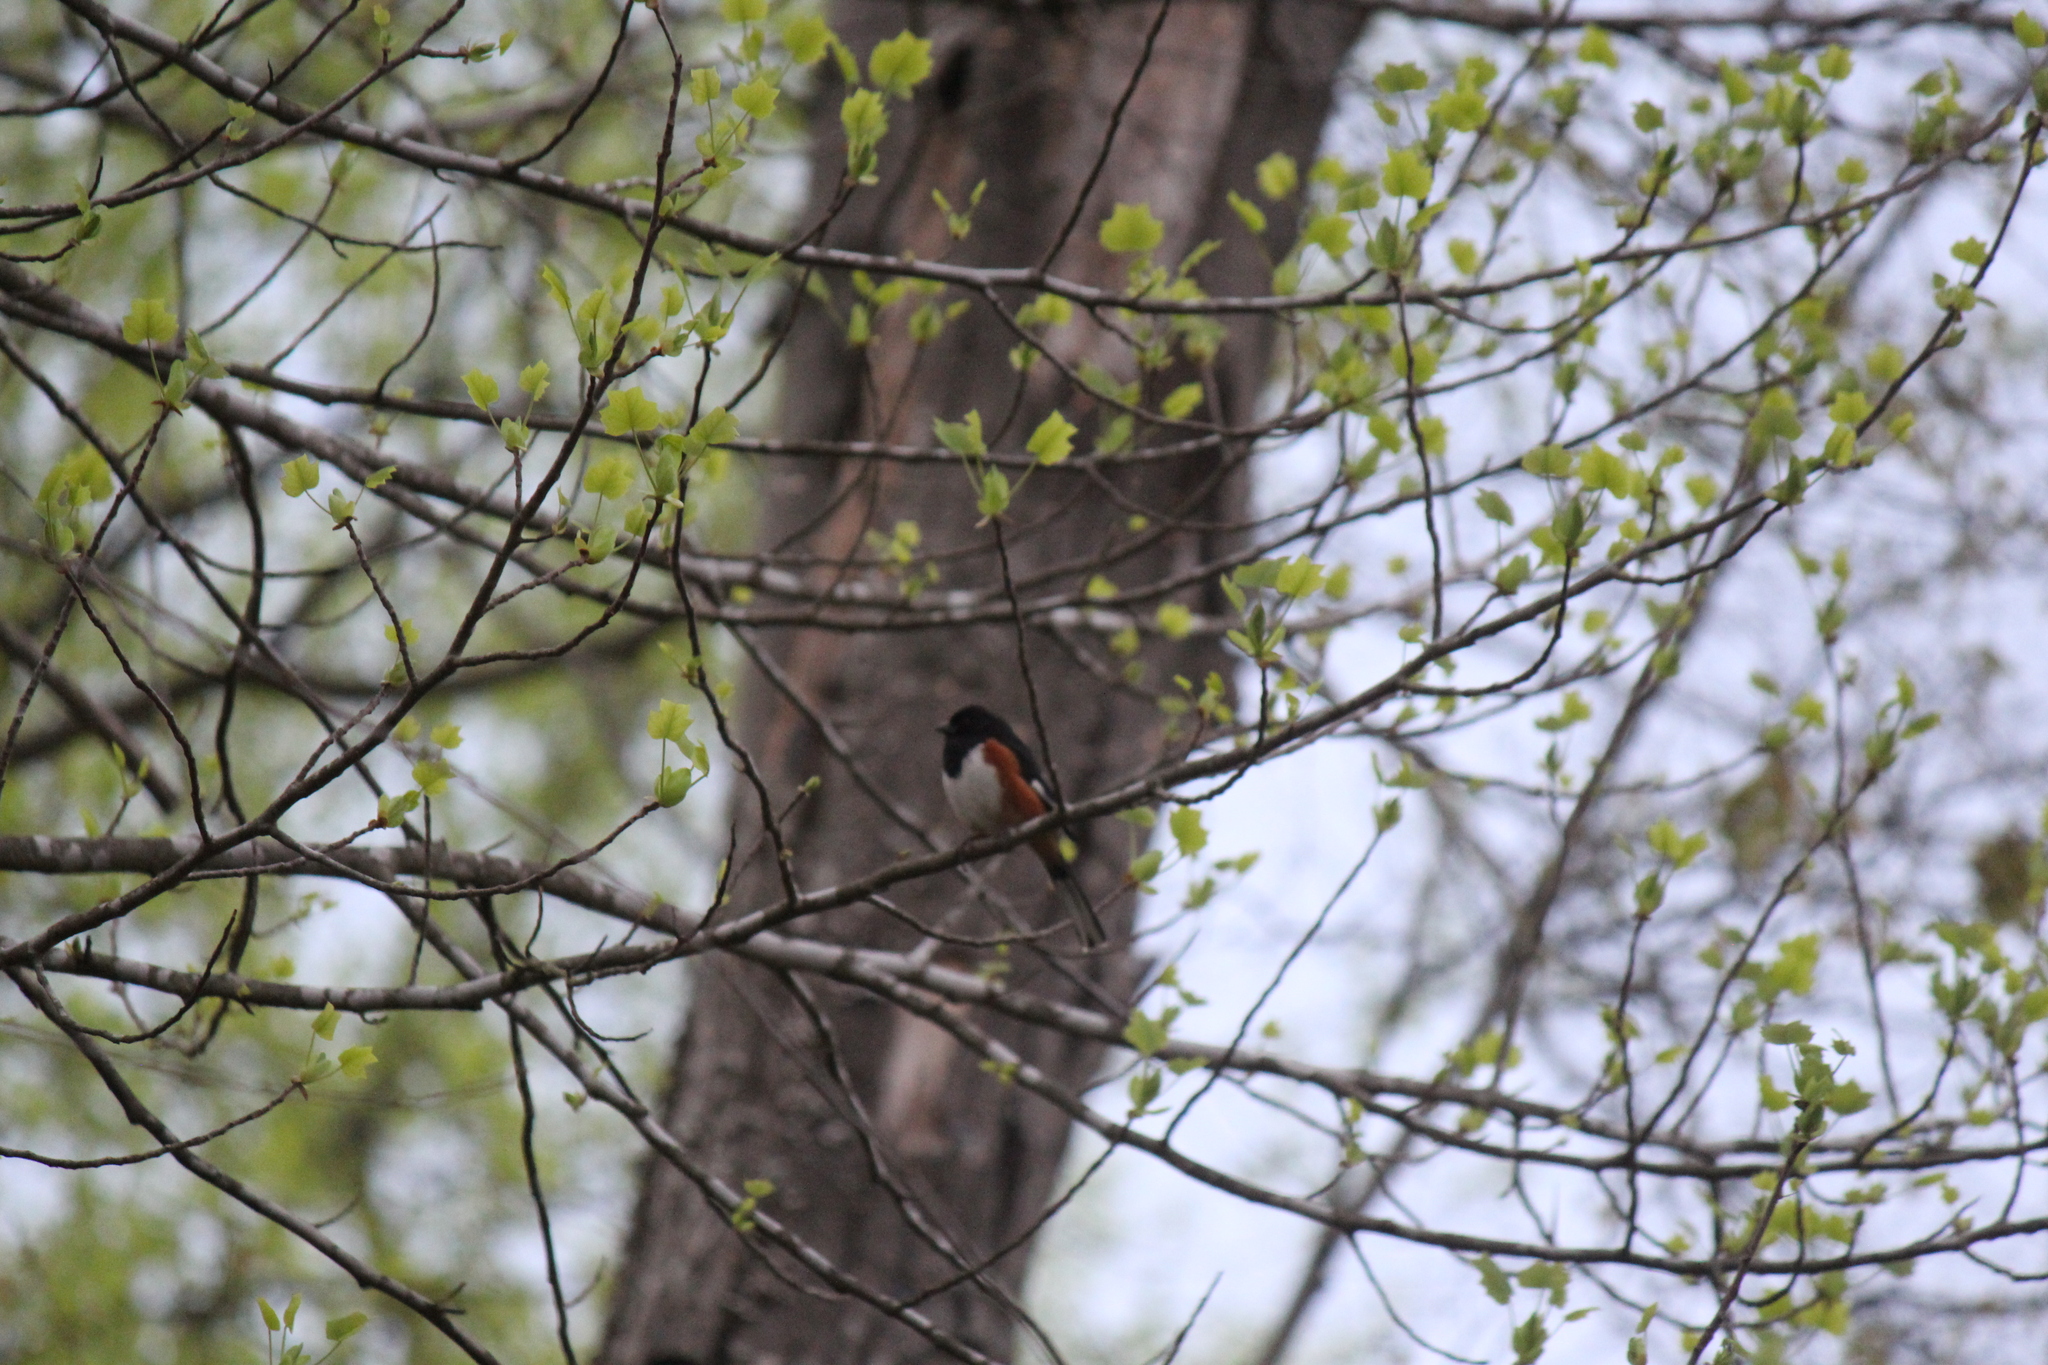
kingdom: Animalia
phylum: Chordata
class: Aves
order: Passeriformes
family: Passerellidae
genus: Pipilo
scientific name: Pipilo erythrophthalmus
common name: Eastern towhee
